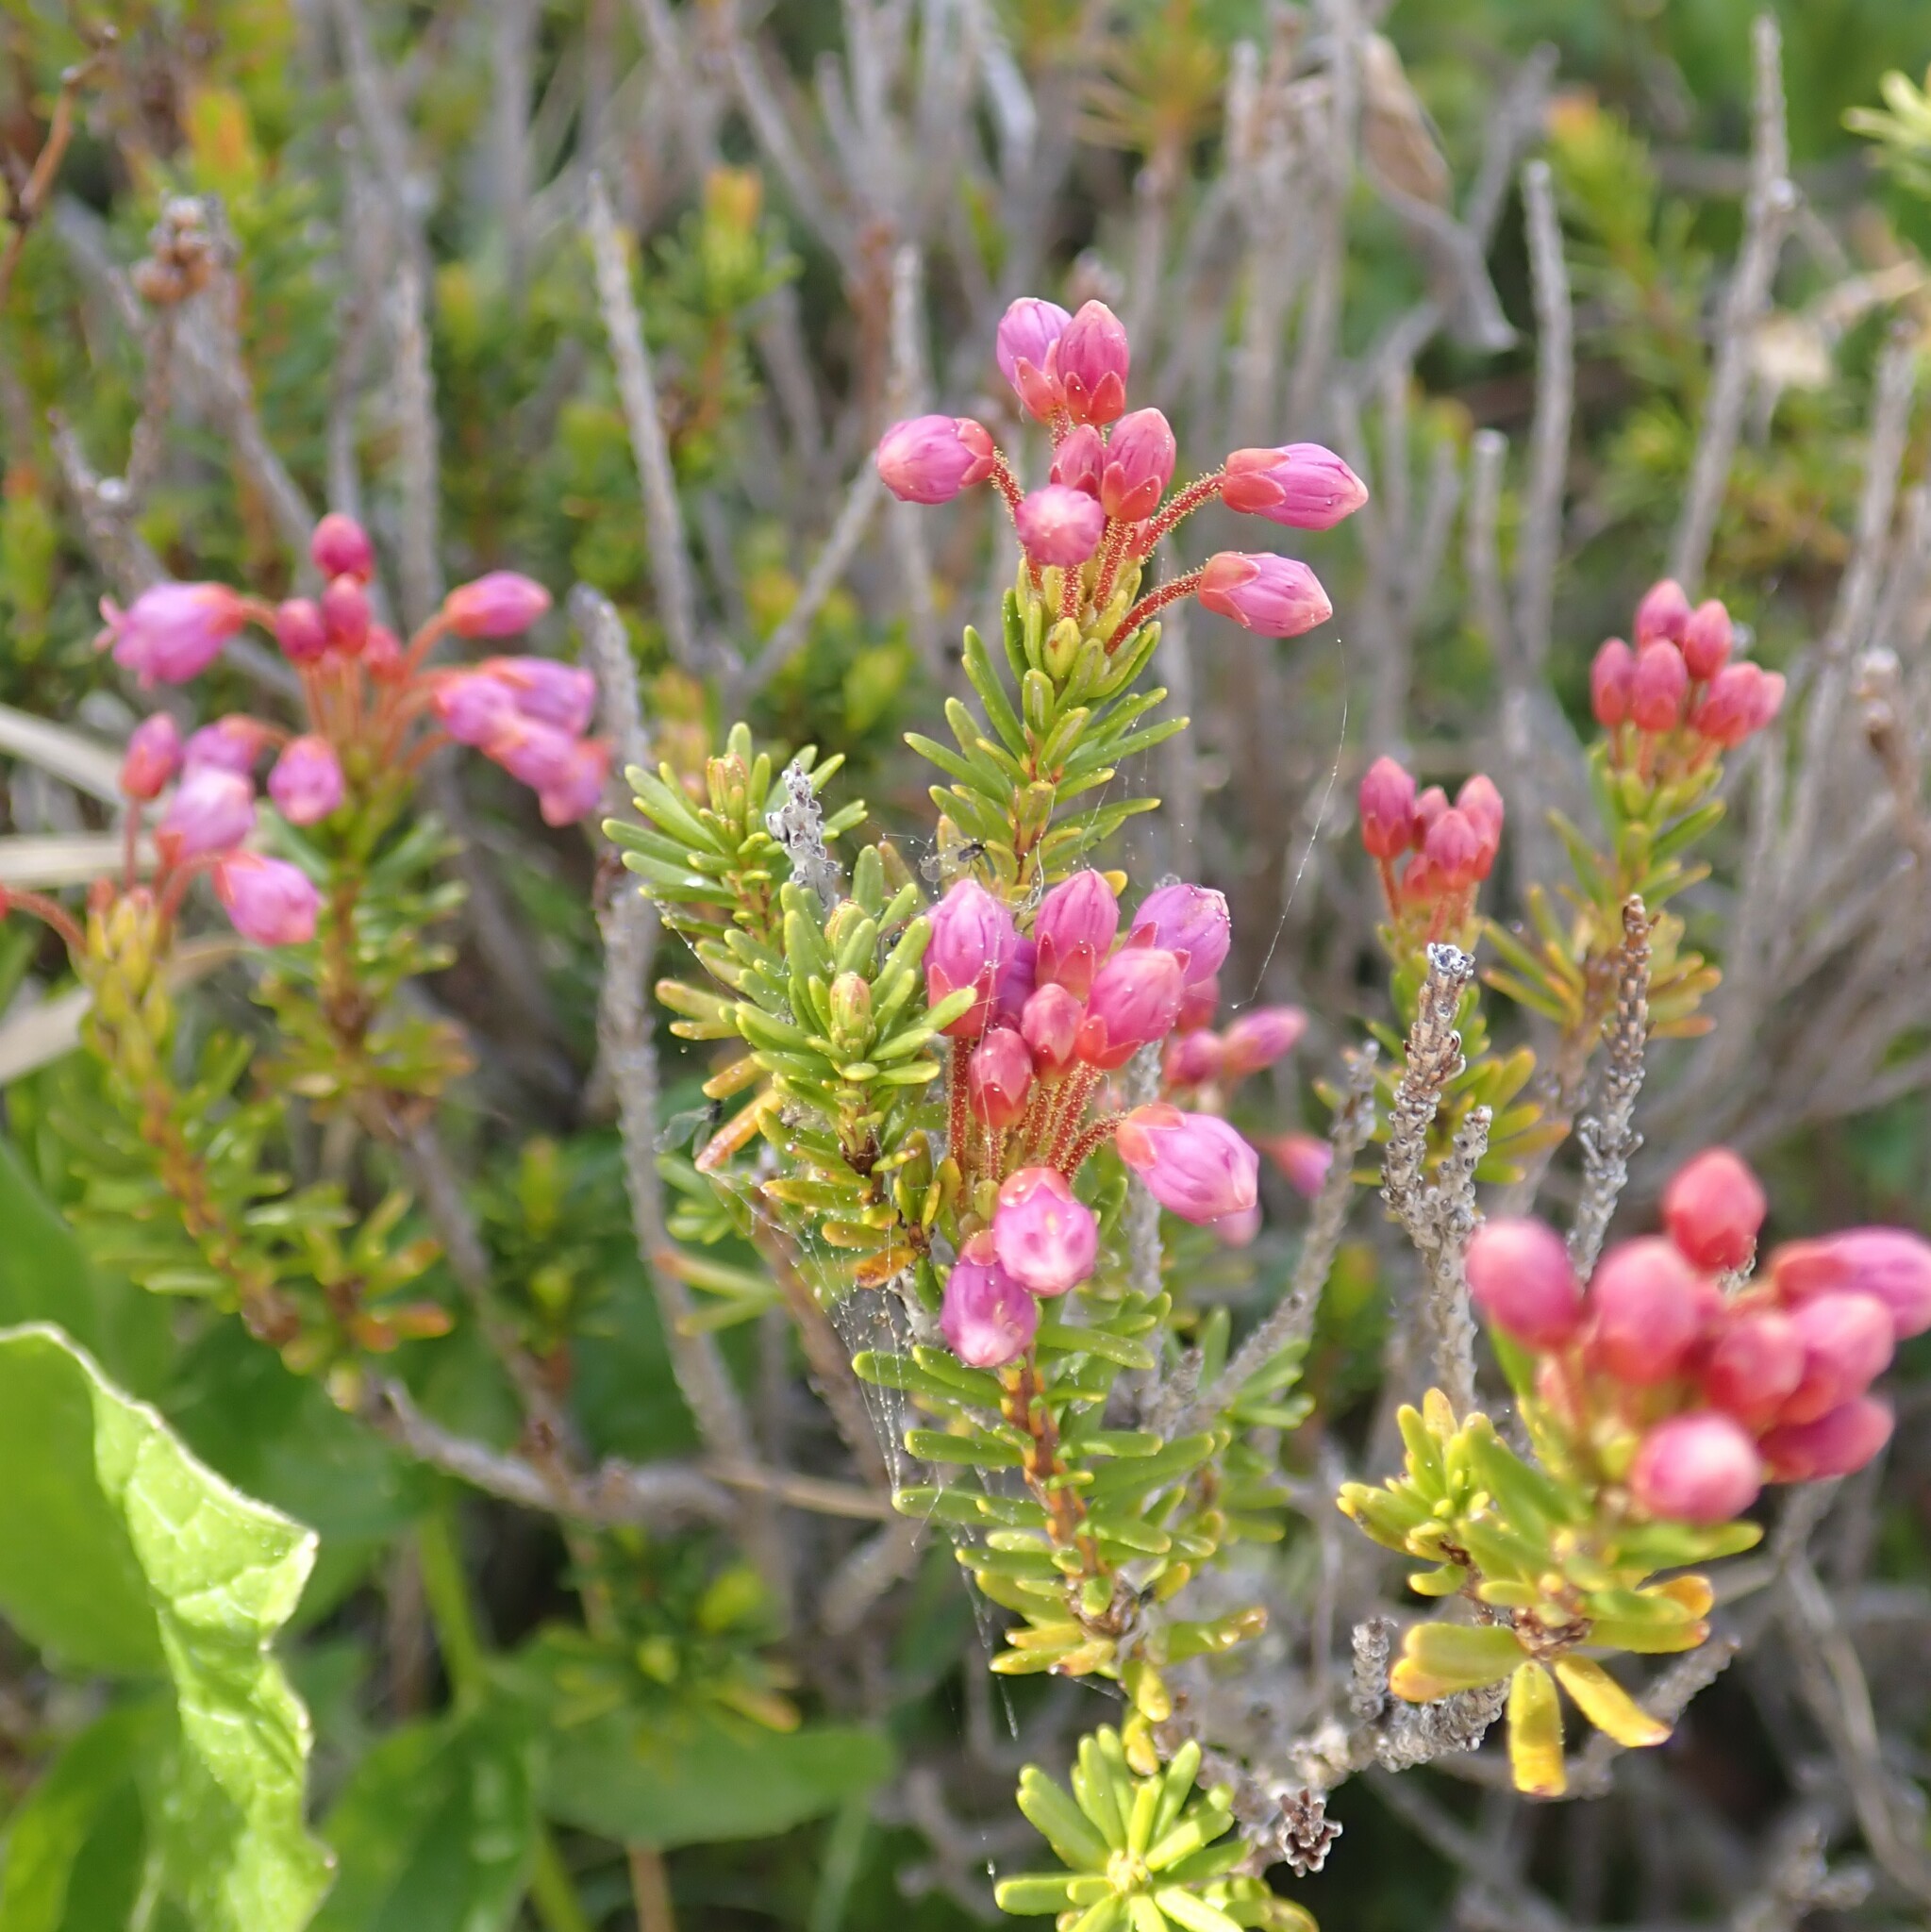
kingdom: Plantae
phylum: Tracheophyta
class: Magnoliopsida
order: Ericales
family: Ericaceae
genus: Phyllodoce
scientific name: Phyllodoce empetriformis
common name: Pink mountain heather
